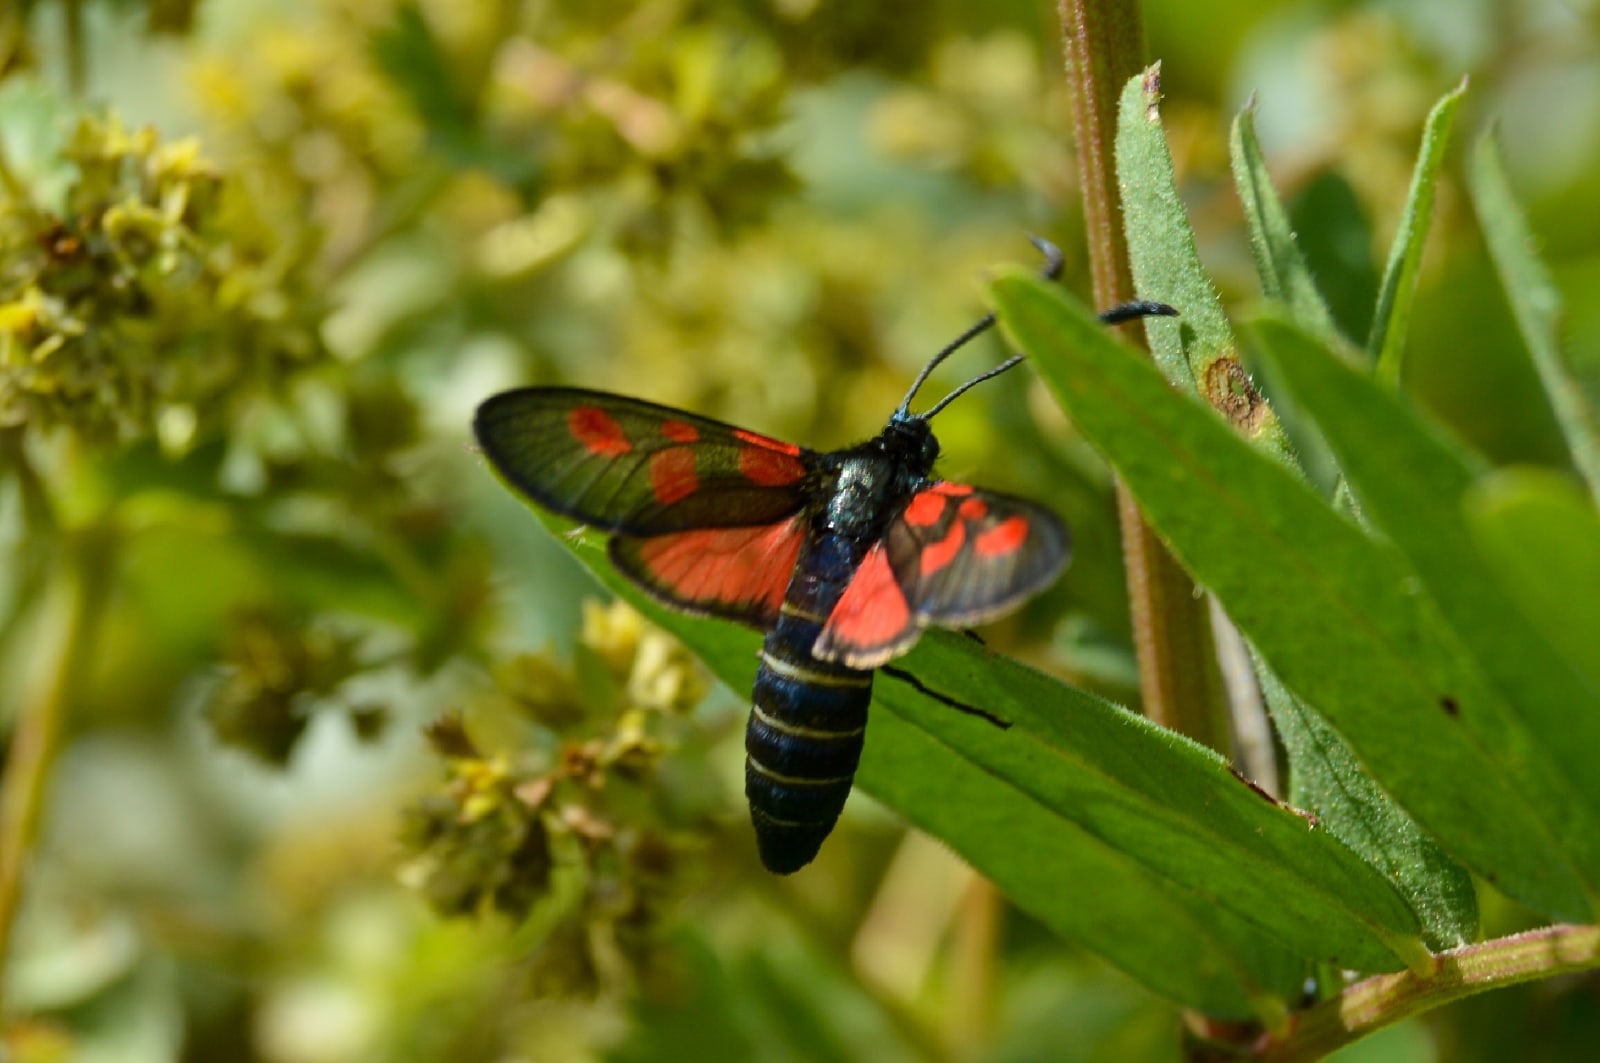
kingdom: Animalia
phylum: Arthropoda
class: Insecta
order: Lepidoptera
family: Zygaenidae
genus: Zygaena
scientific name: Zygaena lonicerae
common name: Narrow-bordered five-spot burnet
